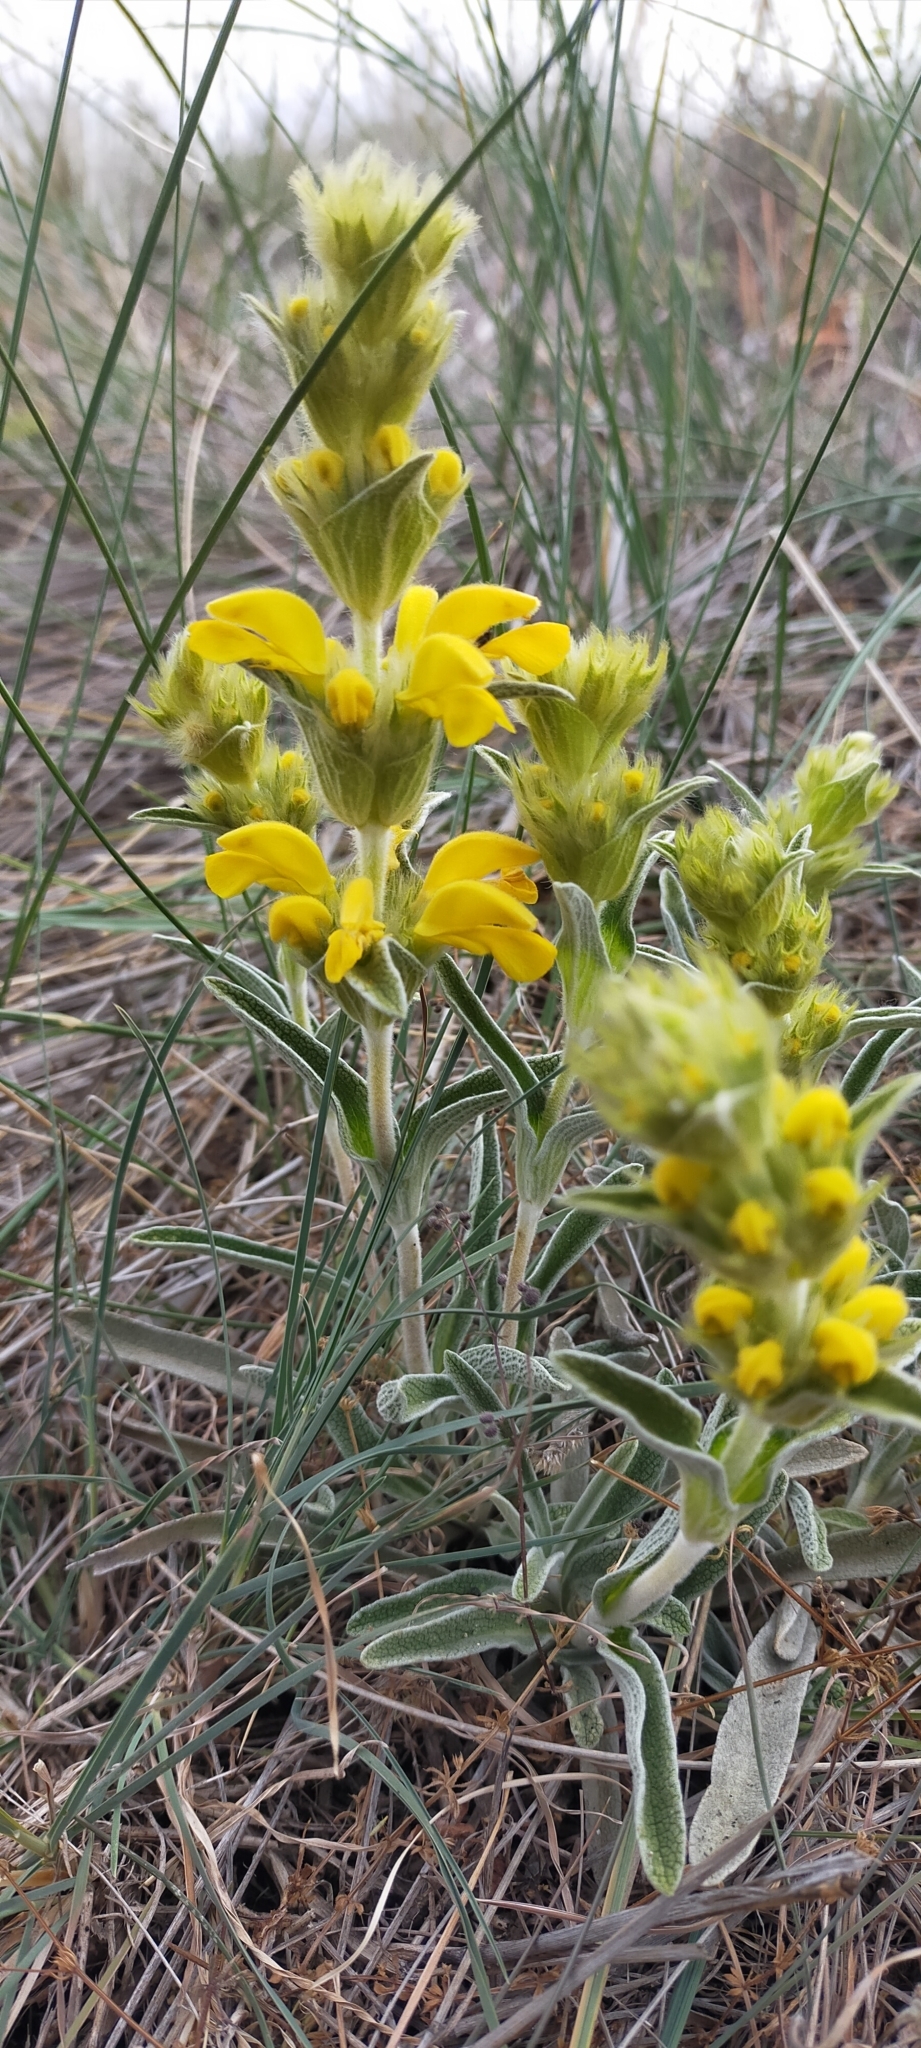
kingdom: Plantae
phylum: Tracheophyta
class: Magnoliopsida
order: Lamiales
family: Lamiaceae
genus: Phlomis
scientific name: Phlomis lychnitis
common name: Lampwickplant
